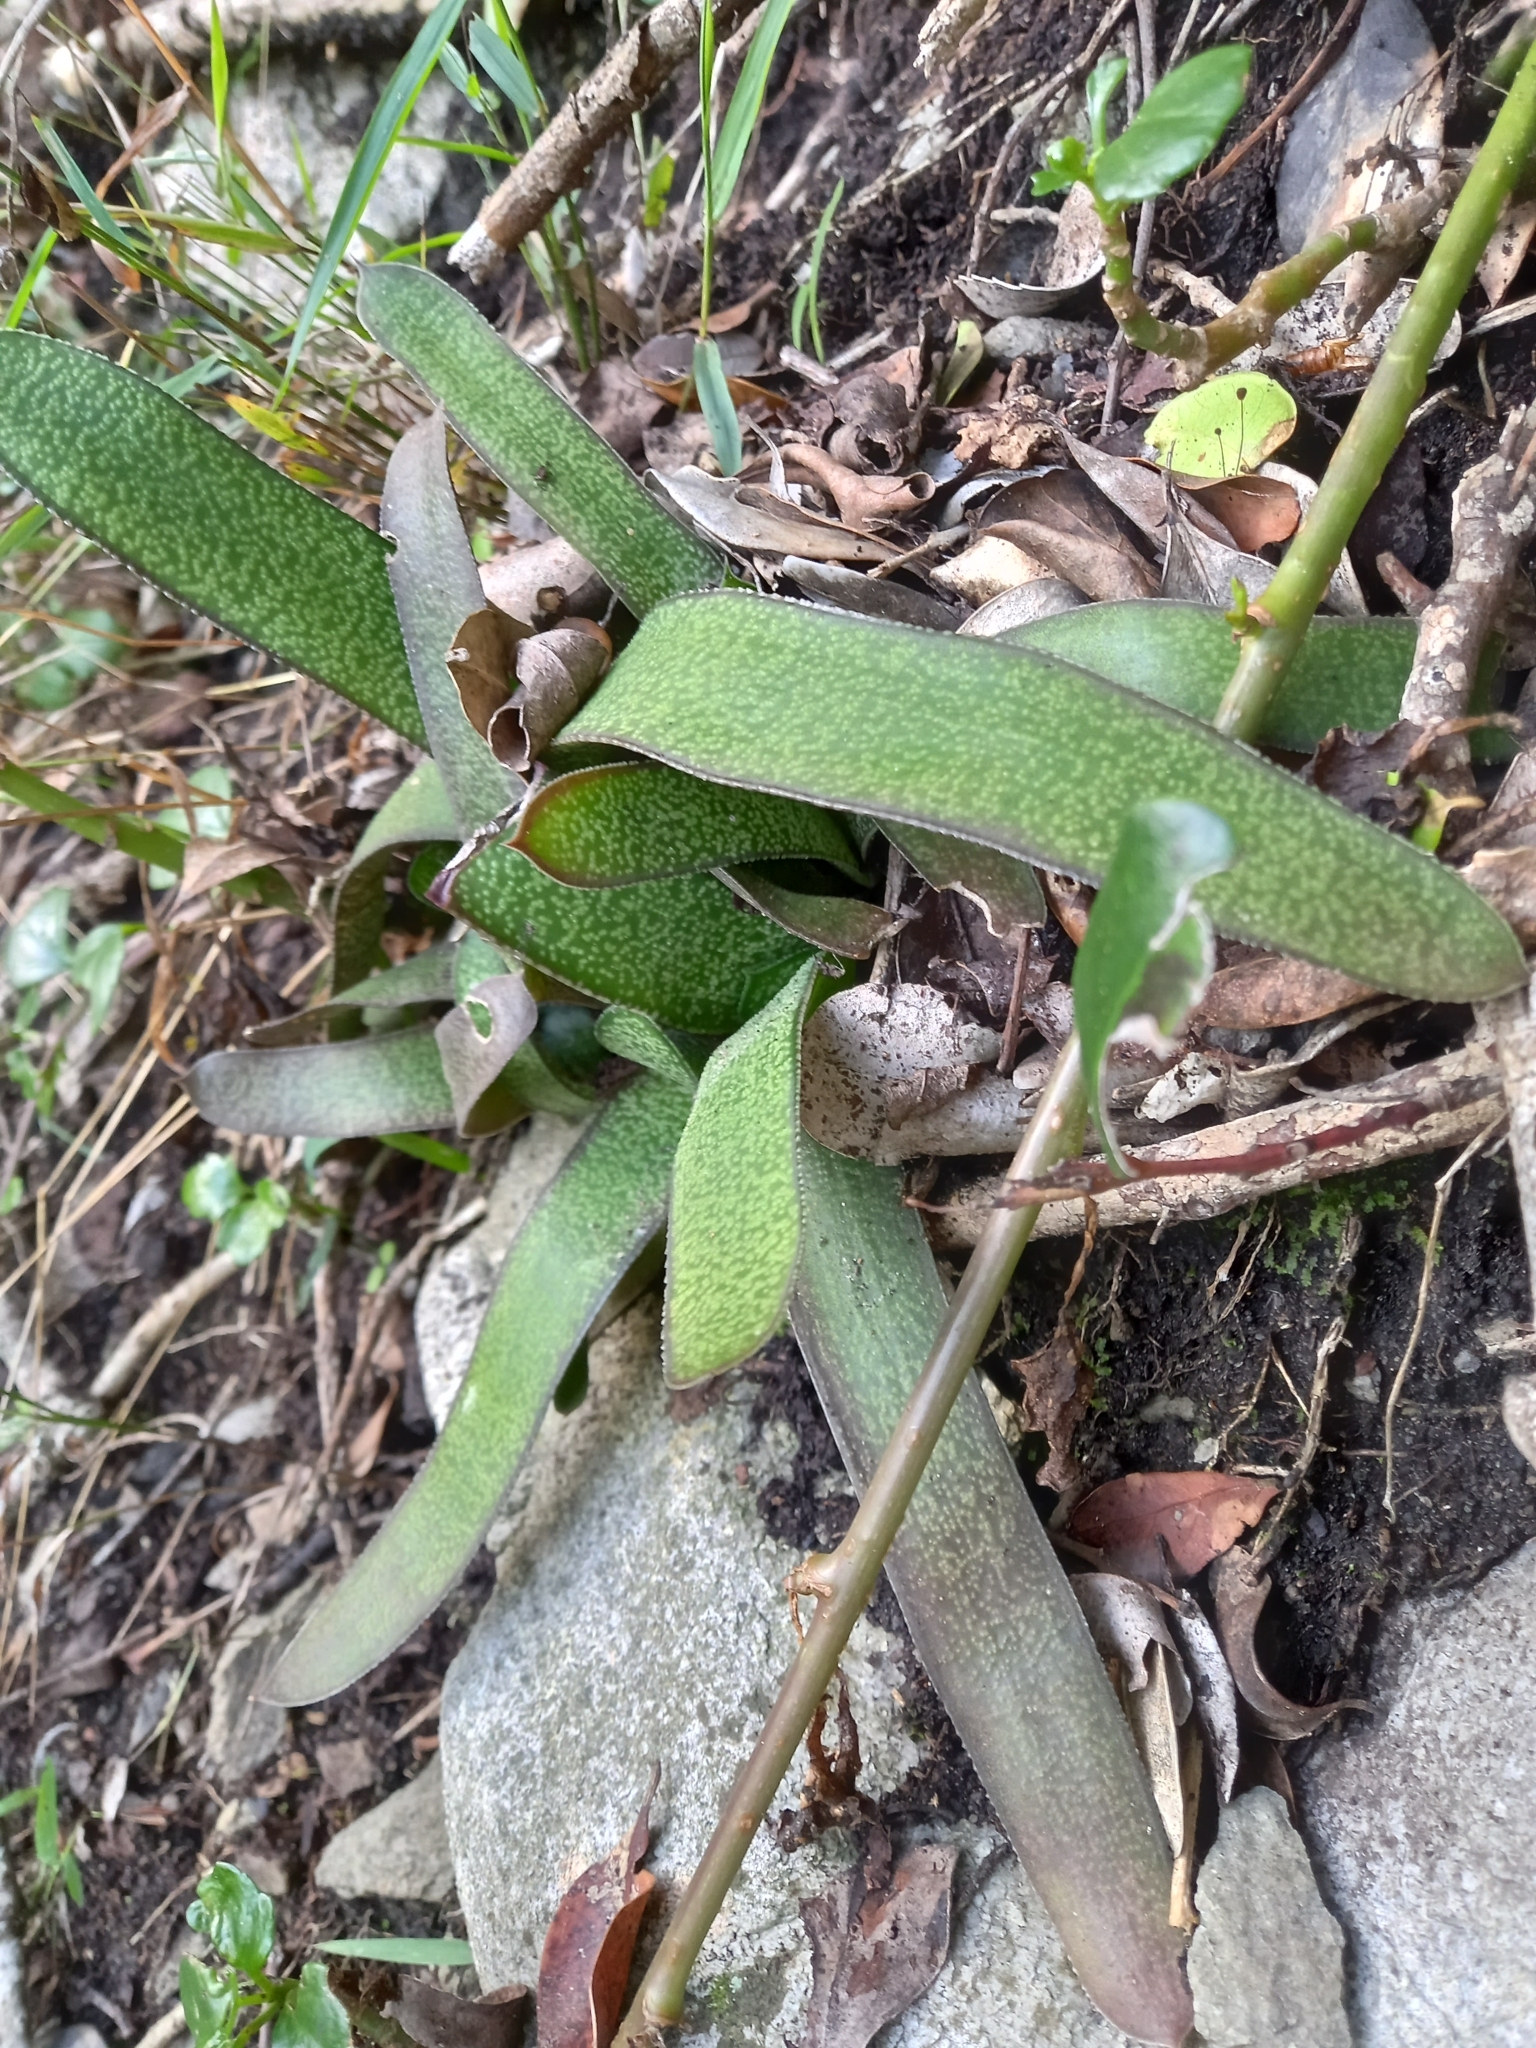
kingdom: Plantae
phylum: Tracheophyta
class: Liliopsida
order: Asparagales
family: Asphodelaceae
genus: Gasteria
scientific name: Gasteria acinacifolia
